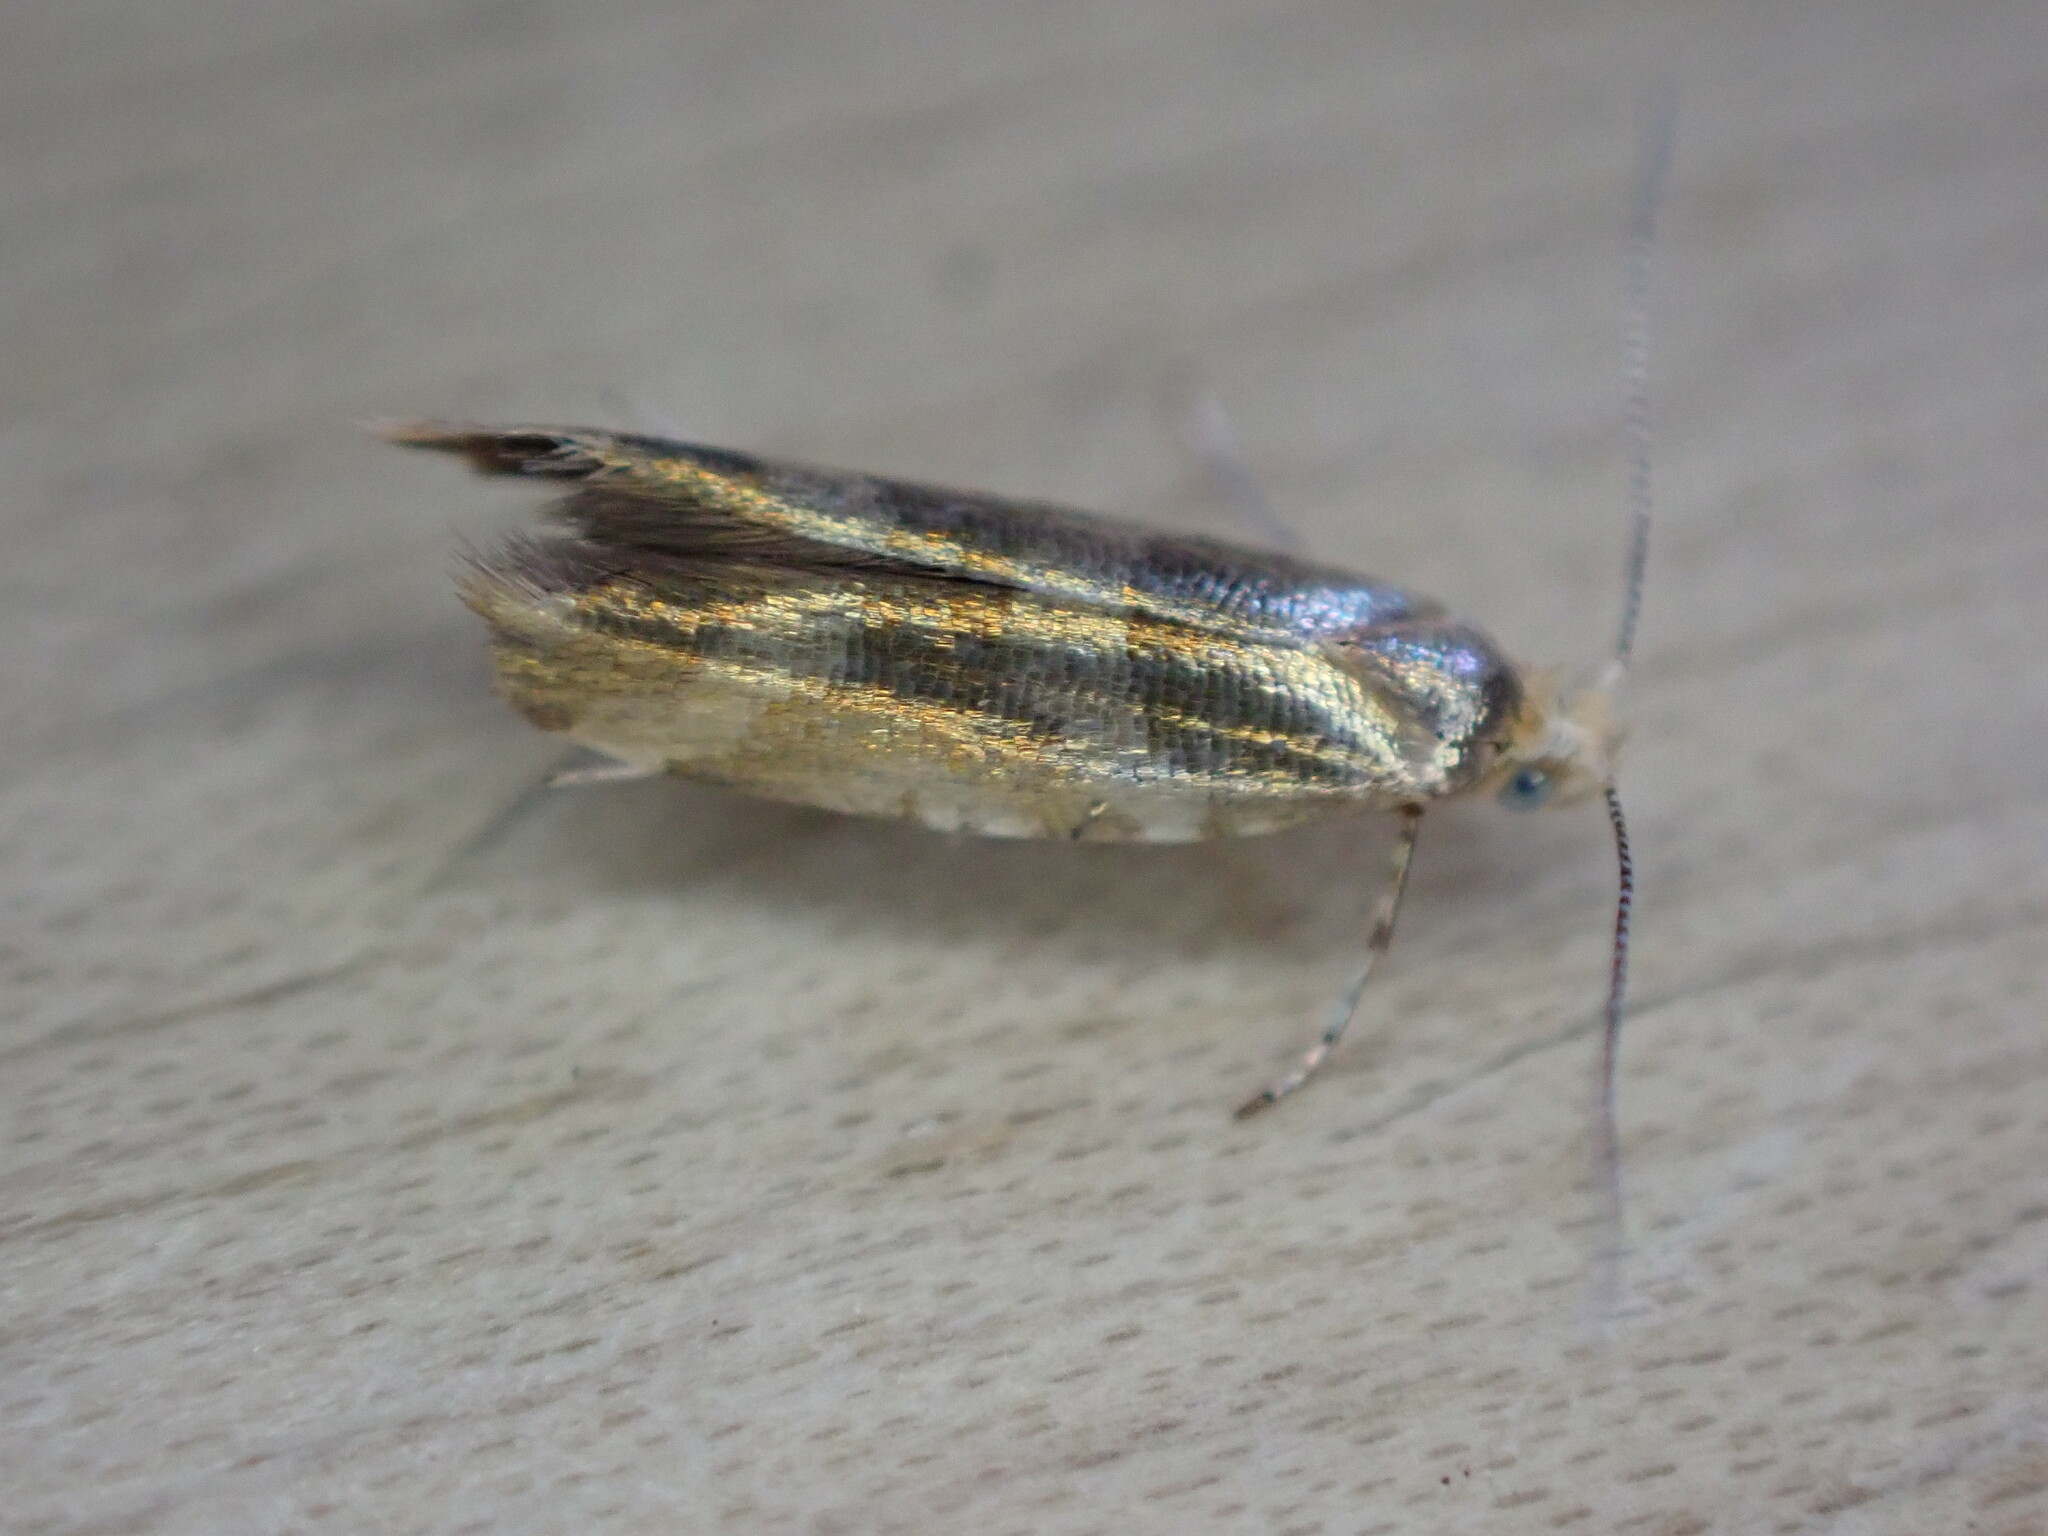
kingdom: Animalia
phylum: Arthropoda
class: Insecta
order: Lepidoptera
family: Argyresthiidae
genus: Argyresthia
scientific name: Argyresthia goedartella
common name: Golden argent
